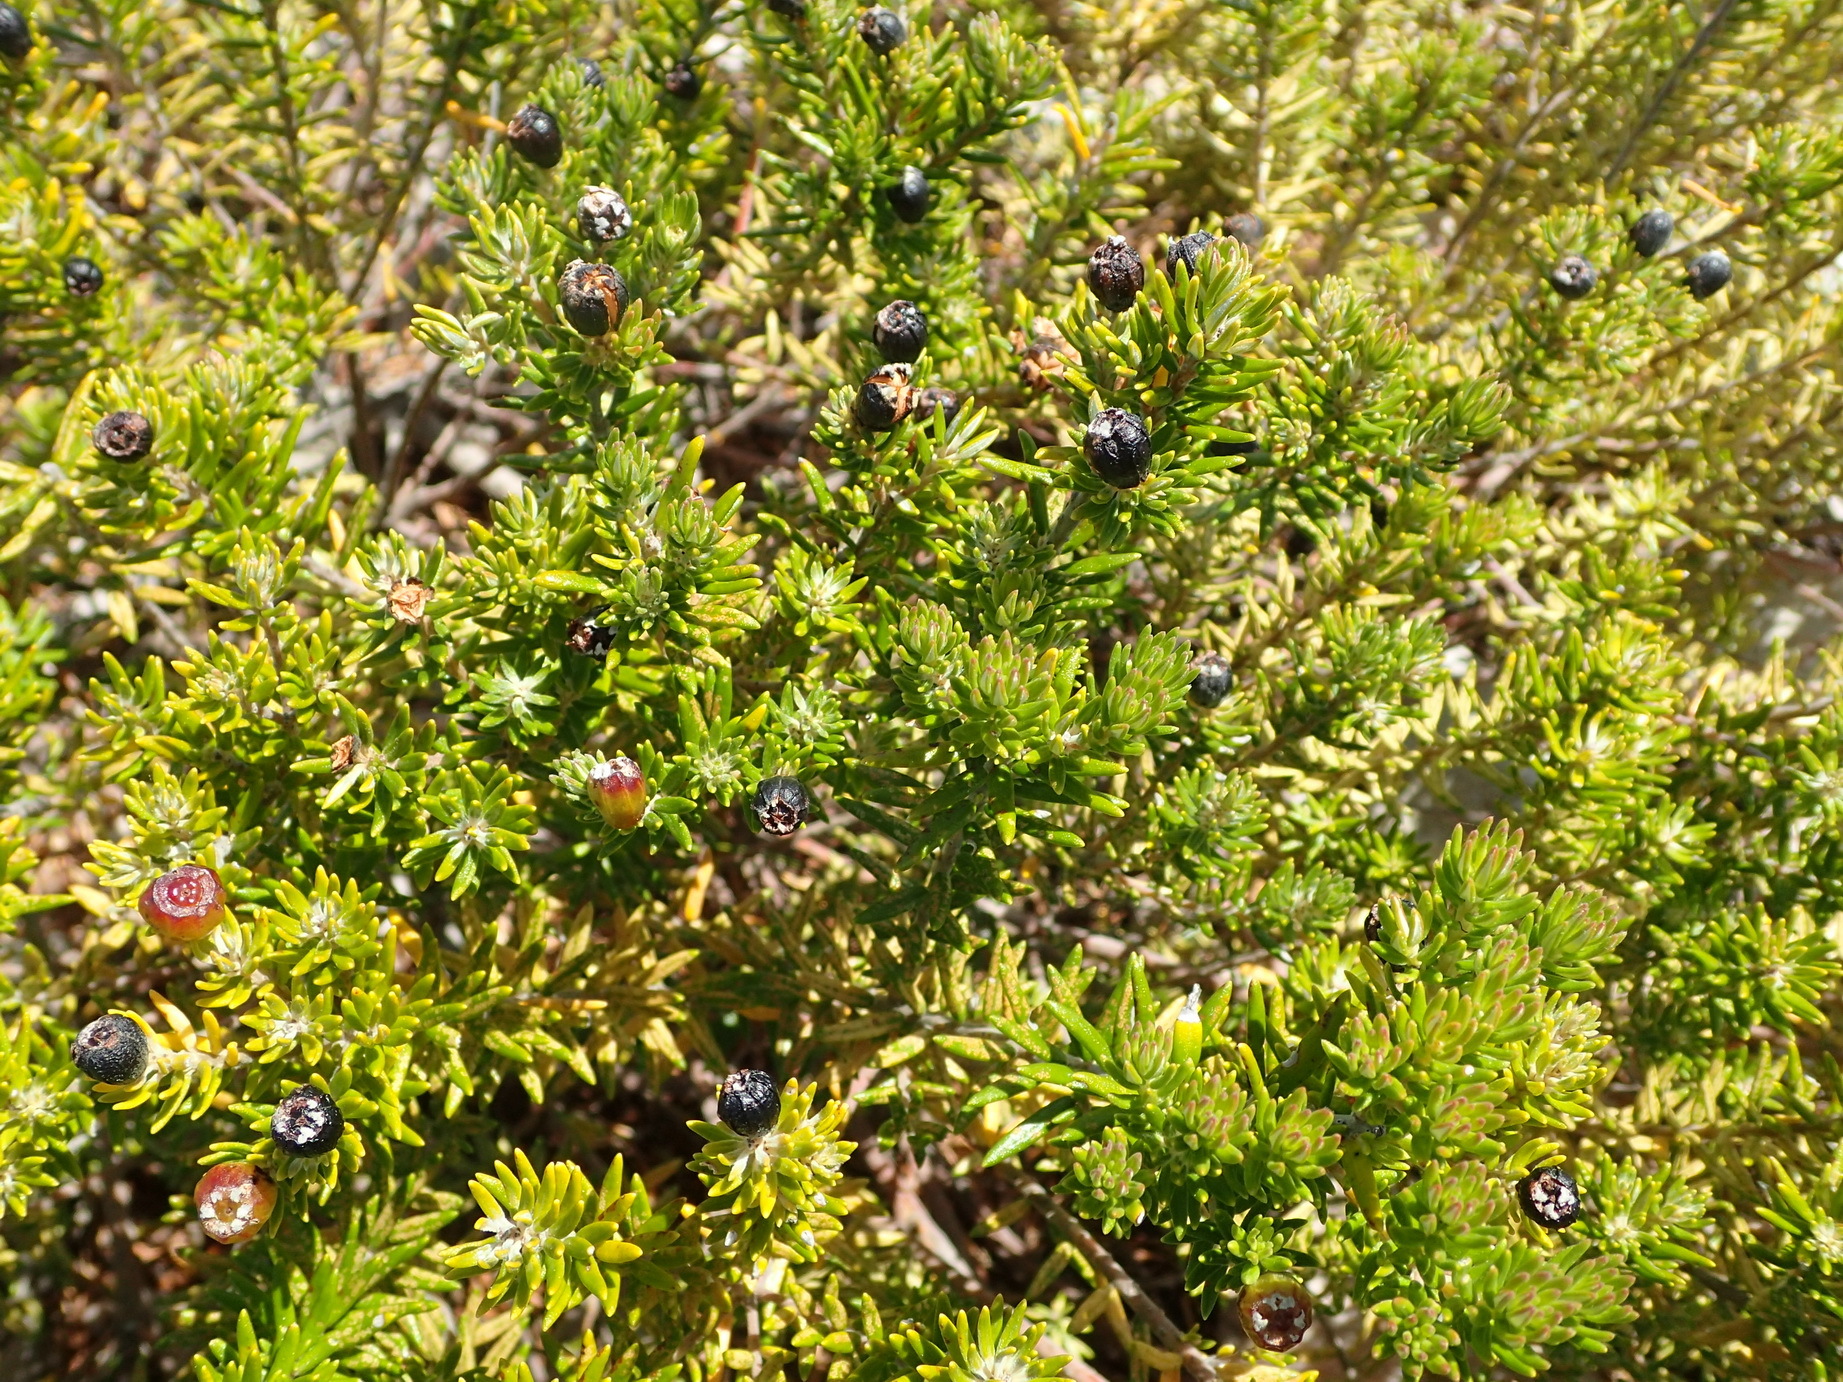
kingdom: Plantae
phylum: Tracheophyta
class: Magnoliopsida
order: Rosales
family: Rhamnaceae
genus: Phylica
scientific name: Phylica axillaris
